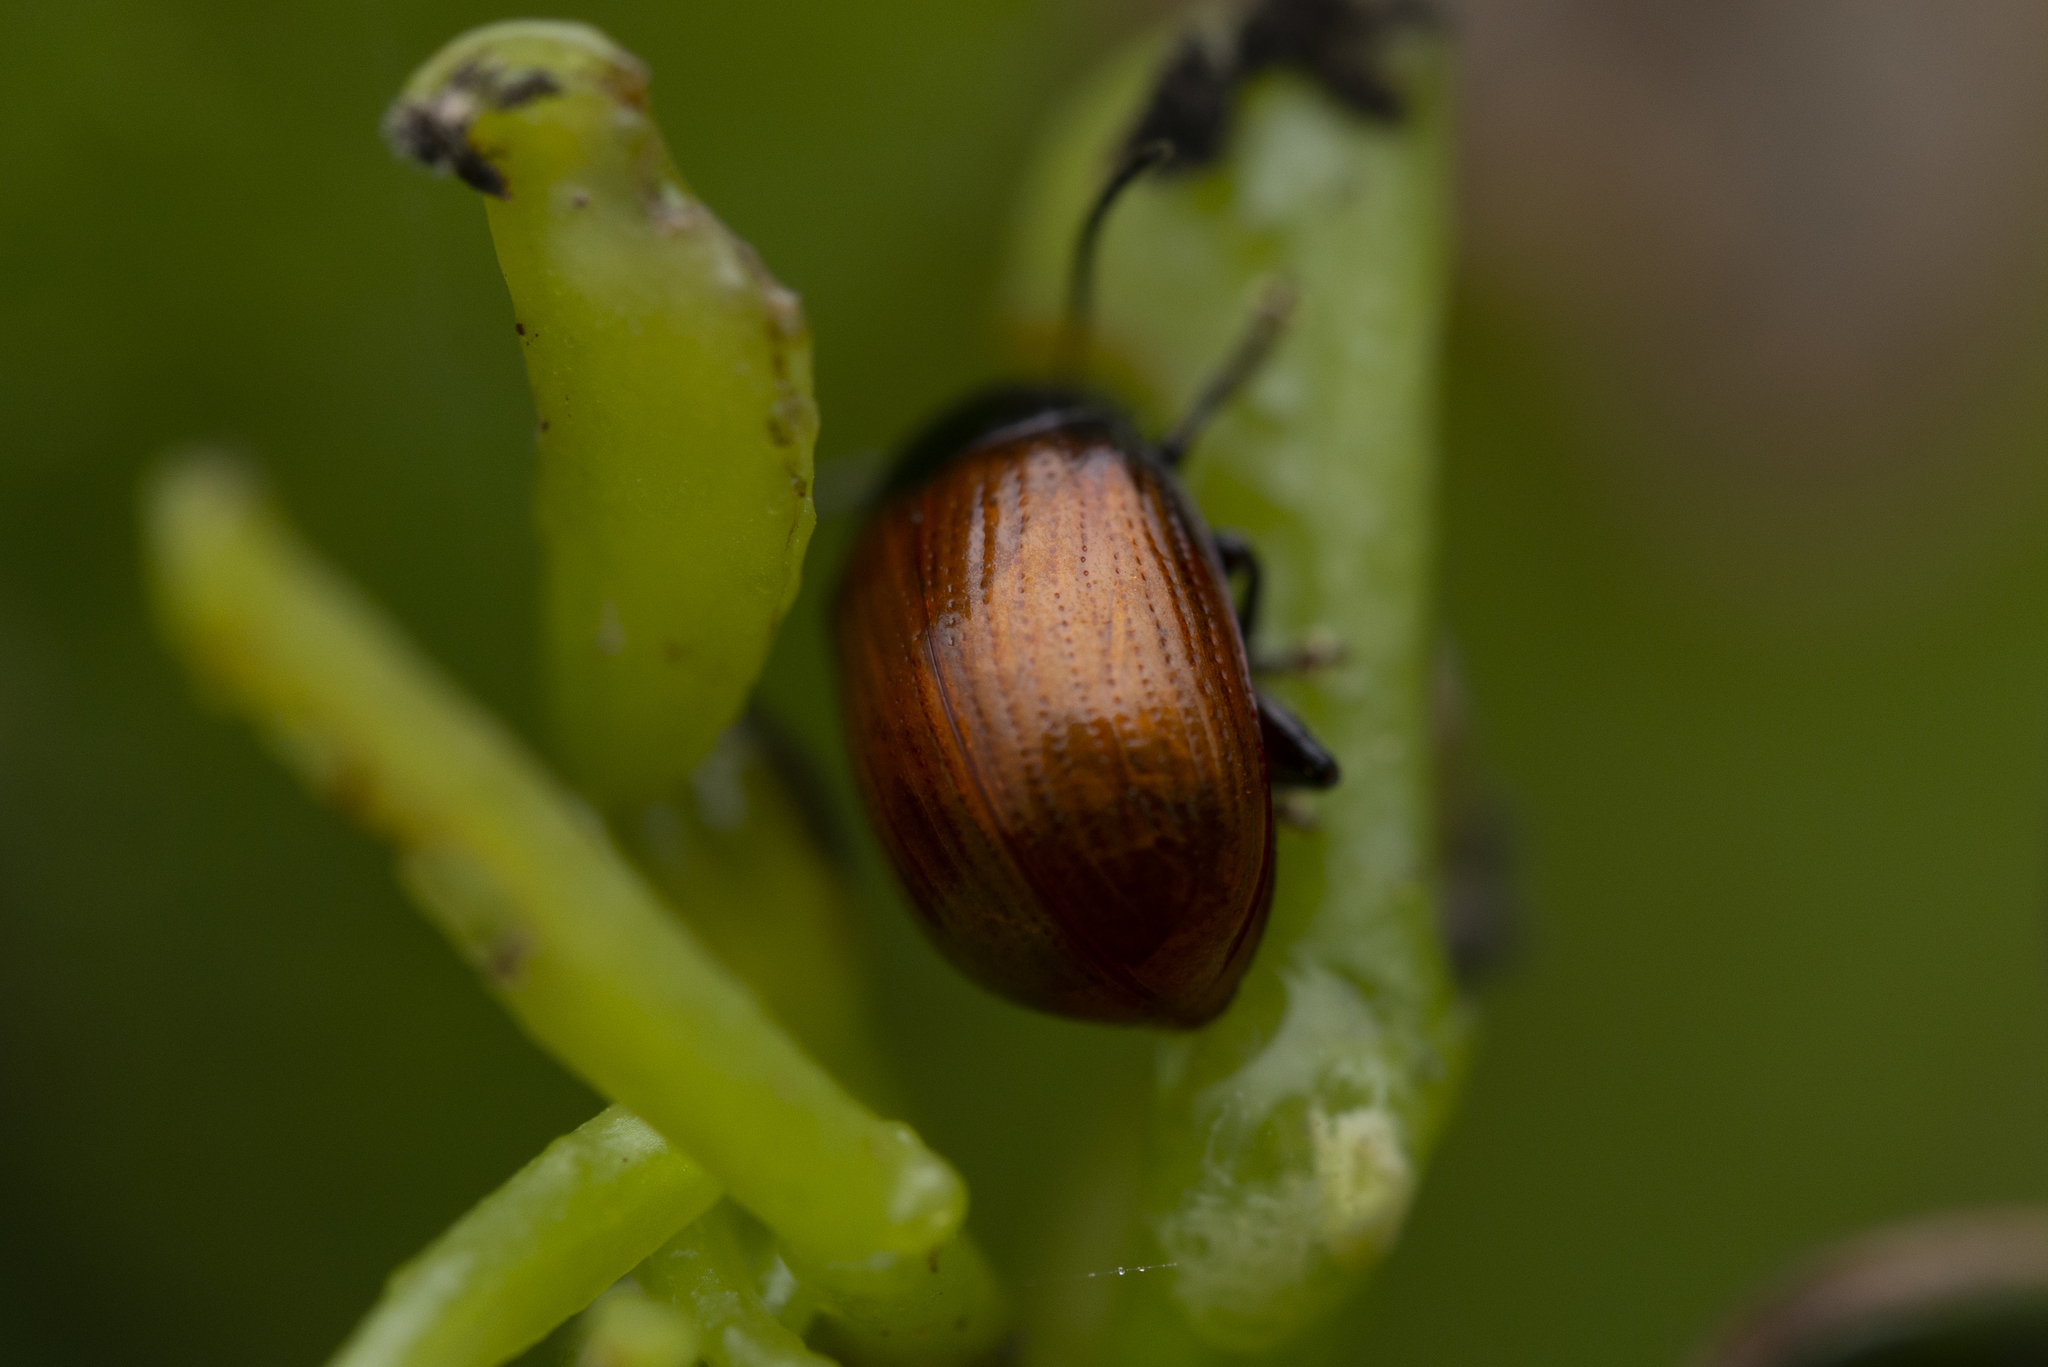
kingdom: Animalia
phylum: Arthropoda
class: Insecta
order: Coleoptera
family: Chrysomelidae
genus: Podagricomela
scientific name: Podagricomela nigricollis
